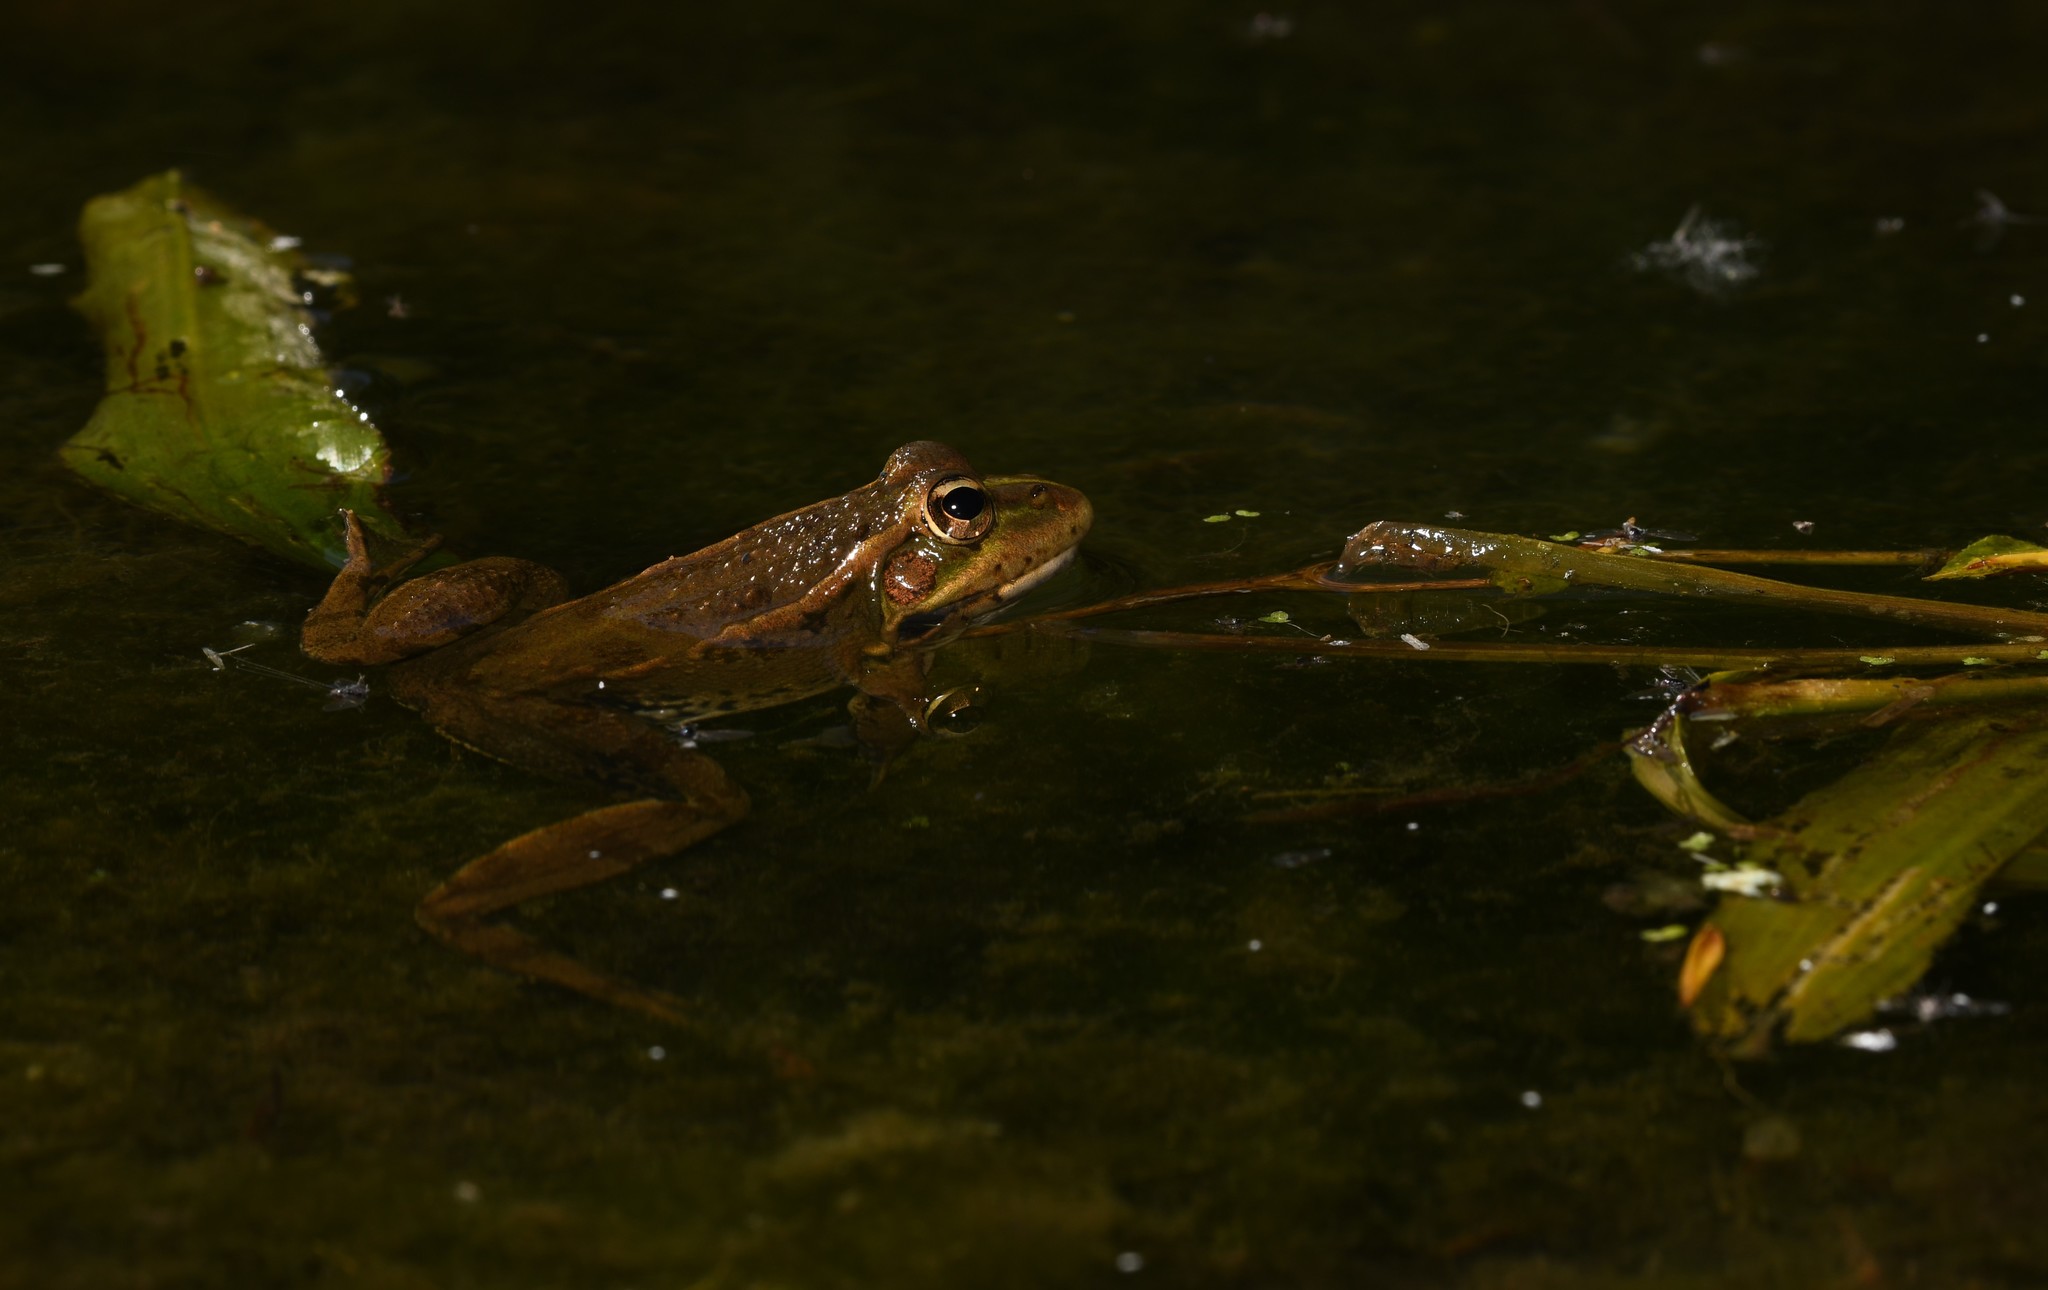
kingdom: Animalia
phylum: Chordata
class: Amphibia
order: Anura
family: Ranidae
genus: Pelophylax
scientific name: Pelophylax perezi
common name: Perez's frog
